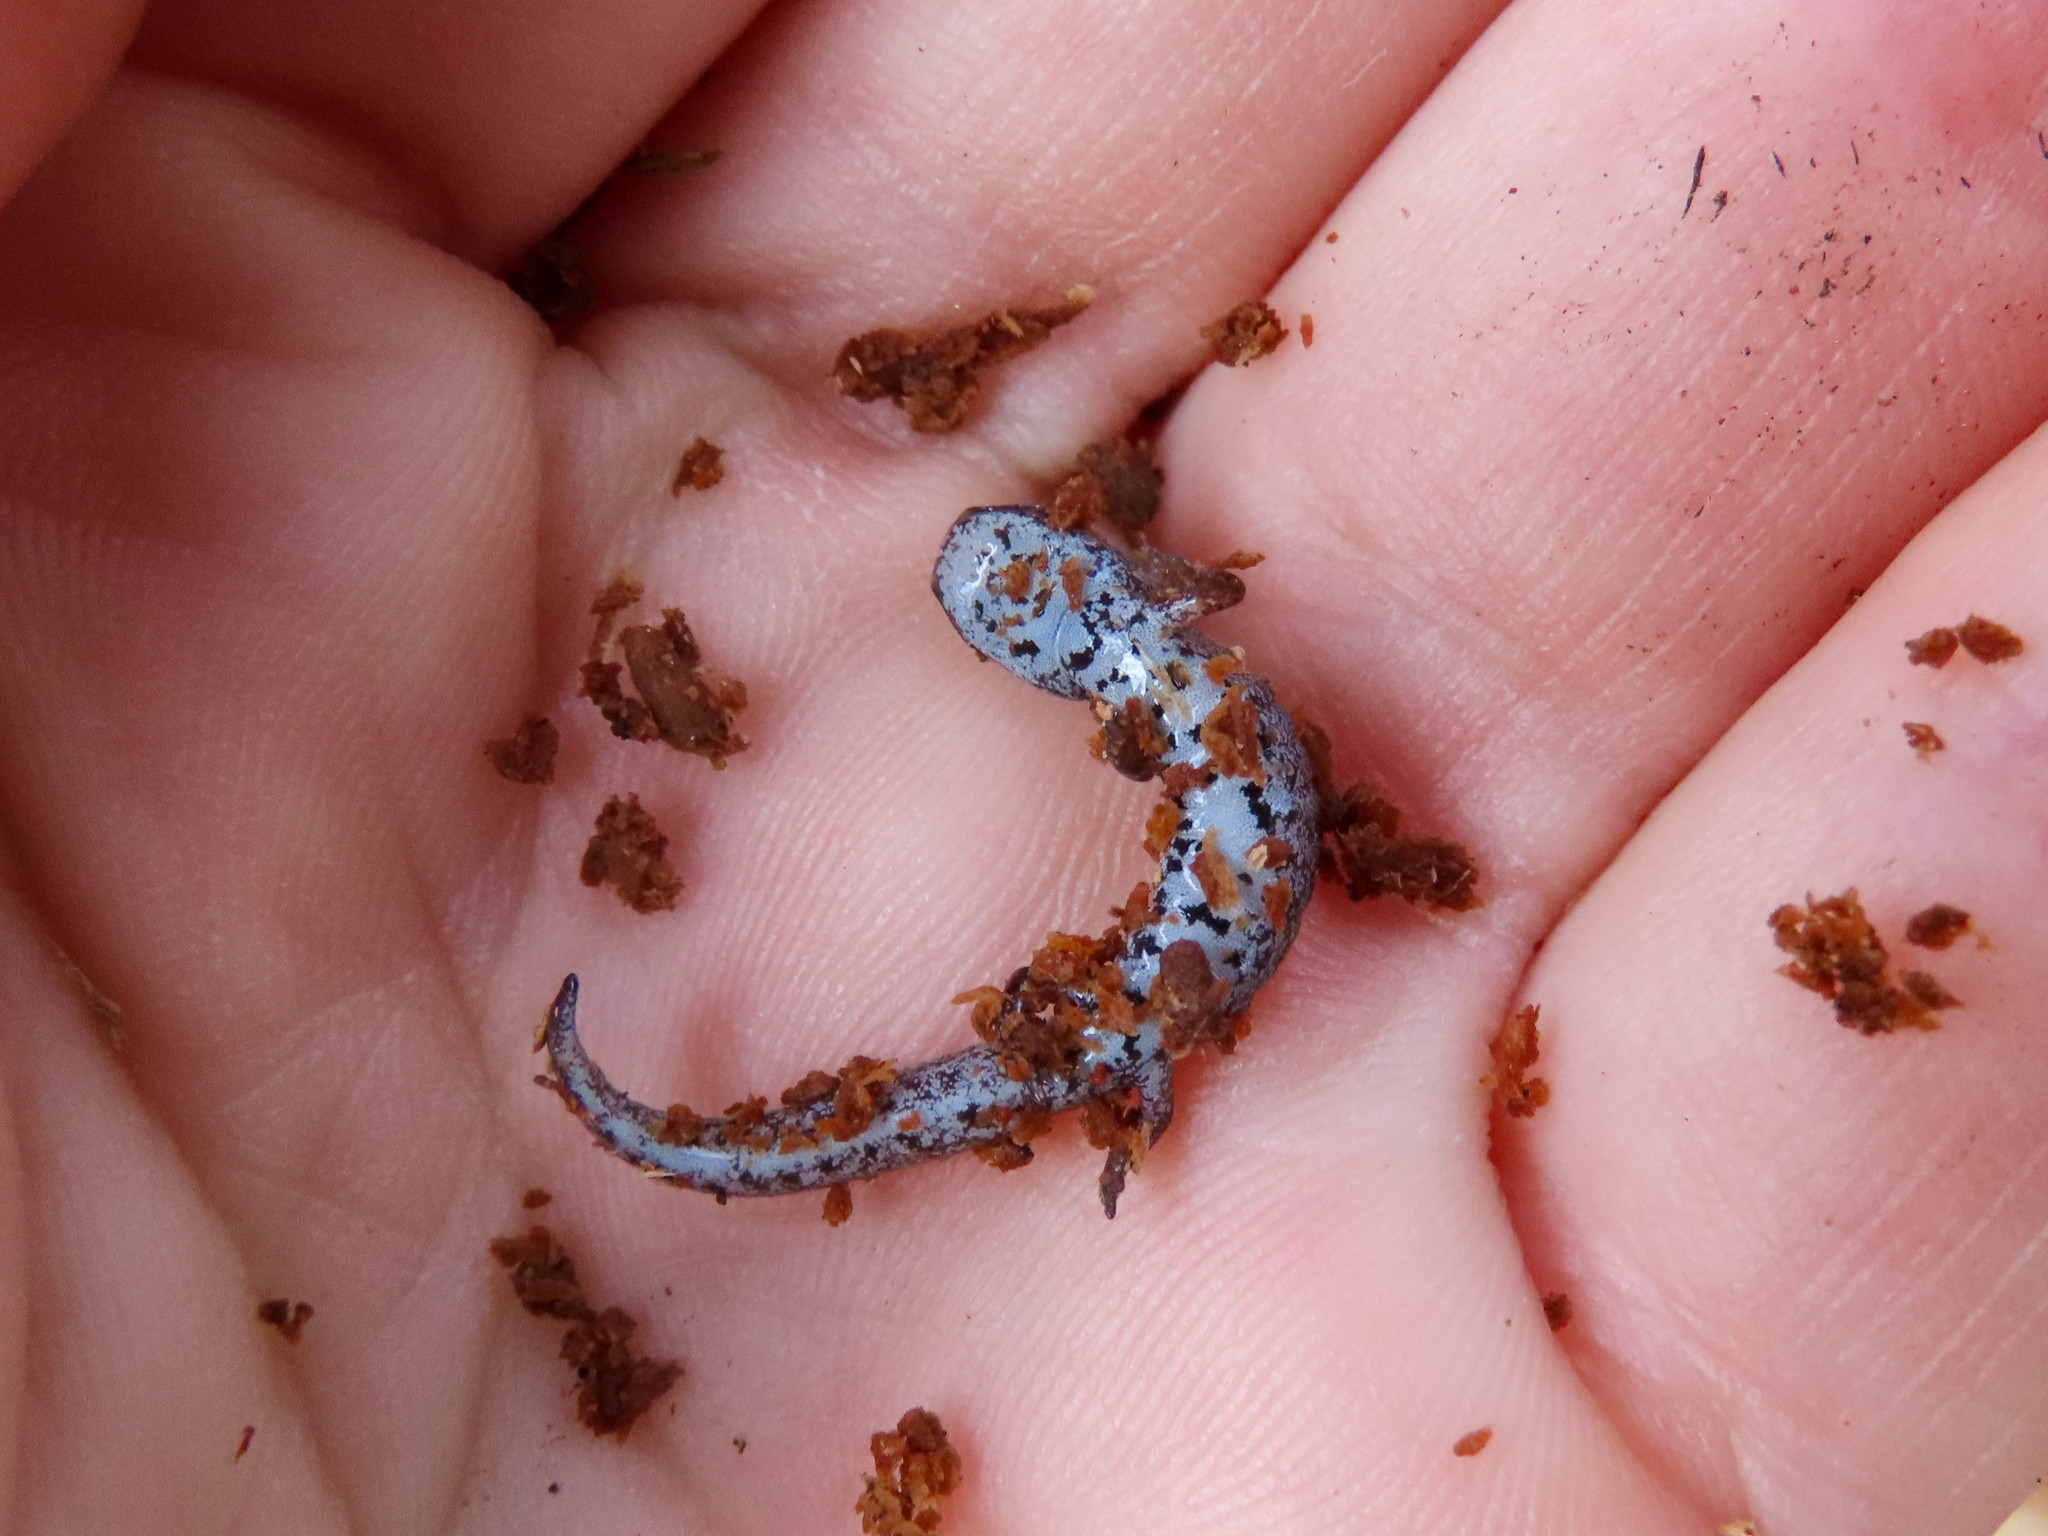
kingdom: Animalia
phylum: Chordata
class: Amphibia
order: Caudata
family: Plethodontidae
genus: Hemidactylium
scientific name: Hemidactylium scutatum
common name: Four-toed salamander
